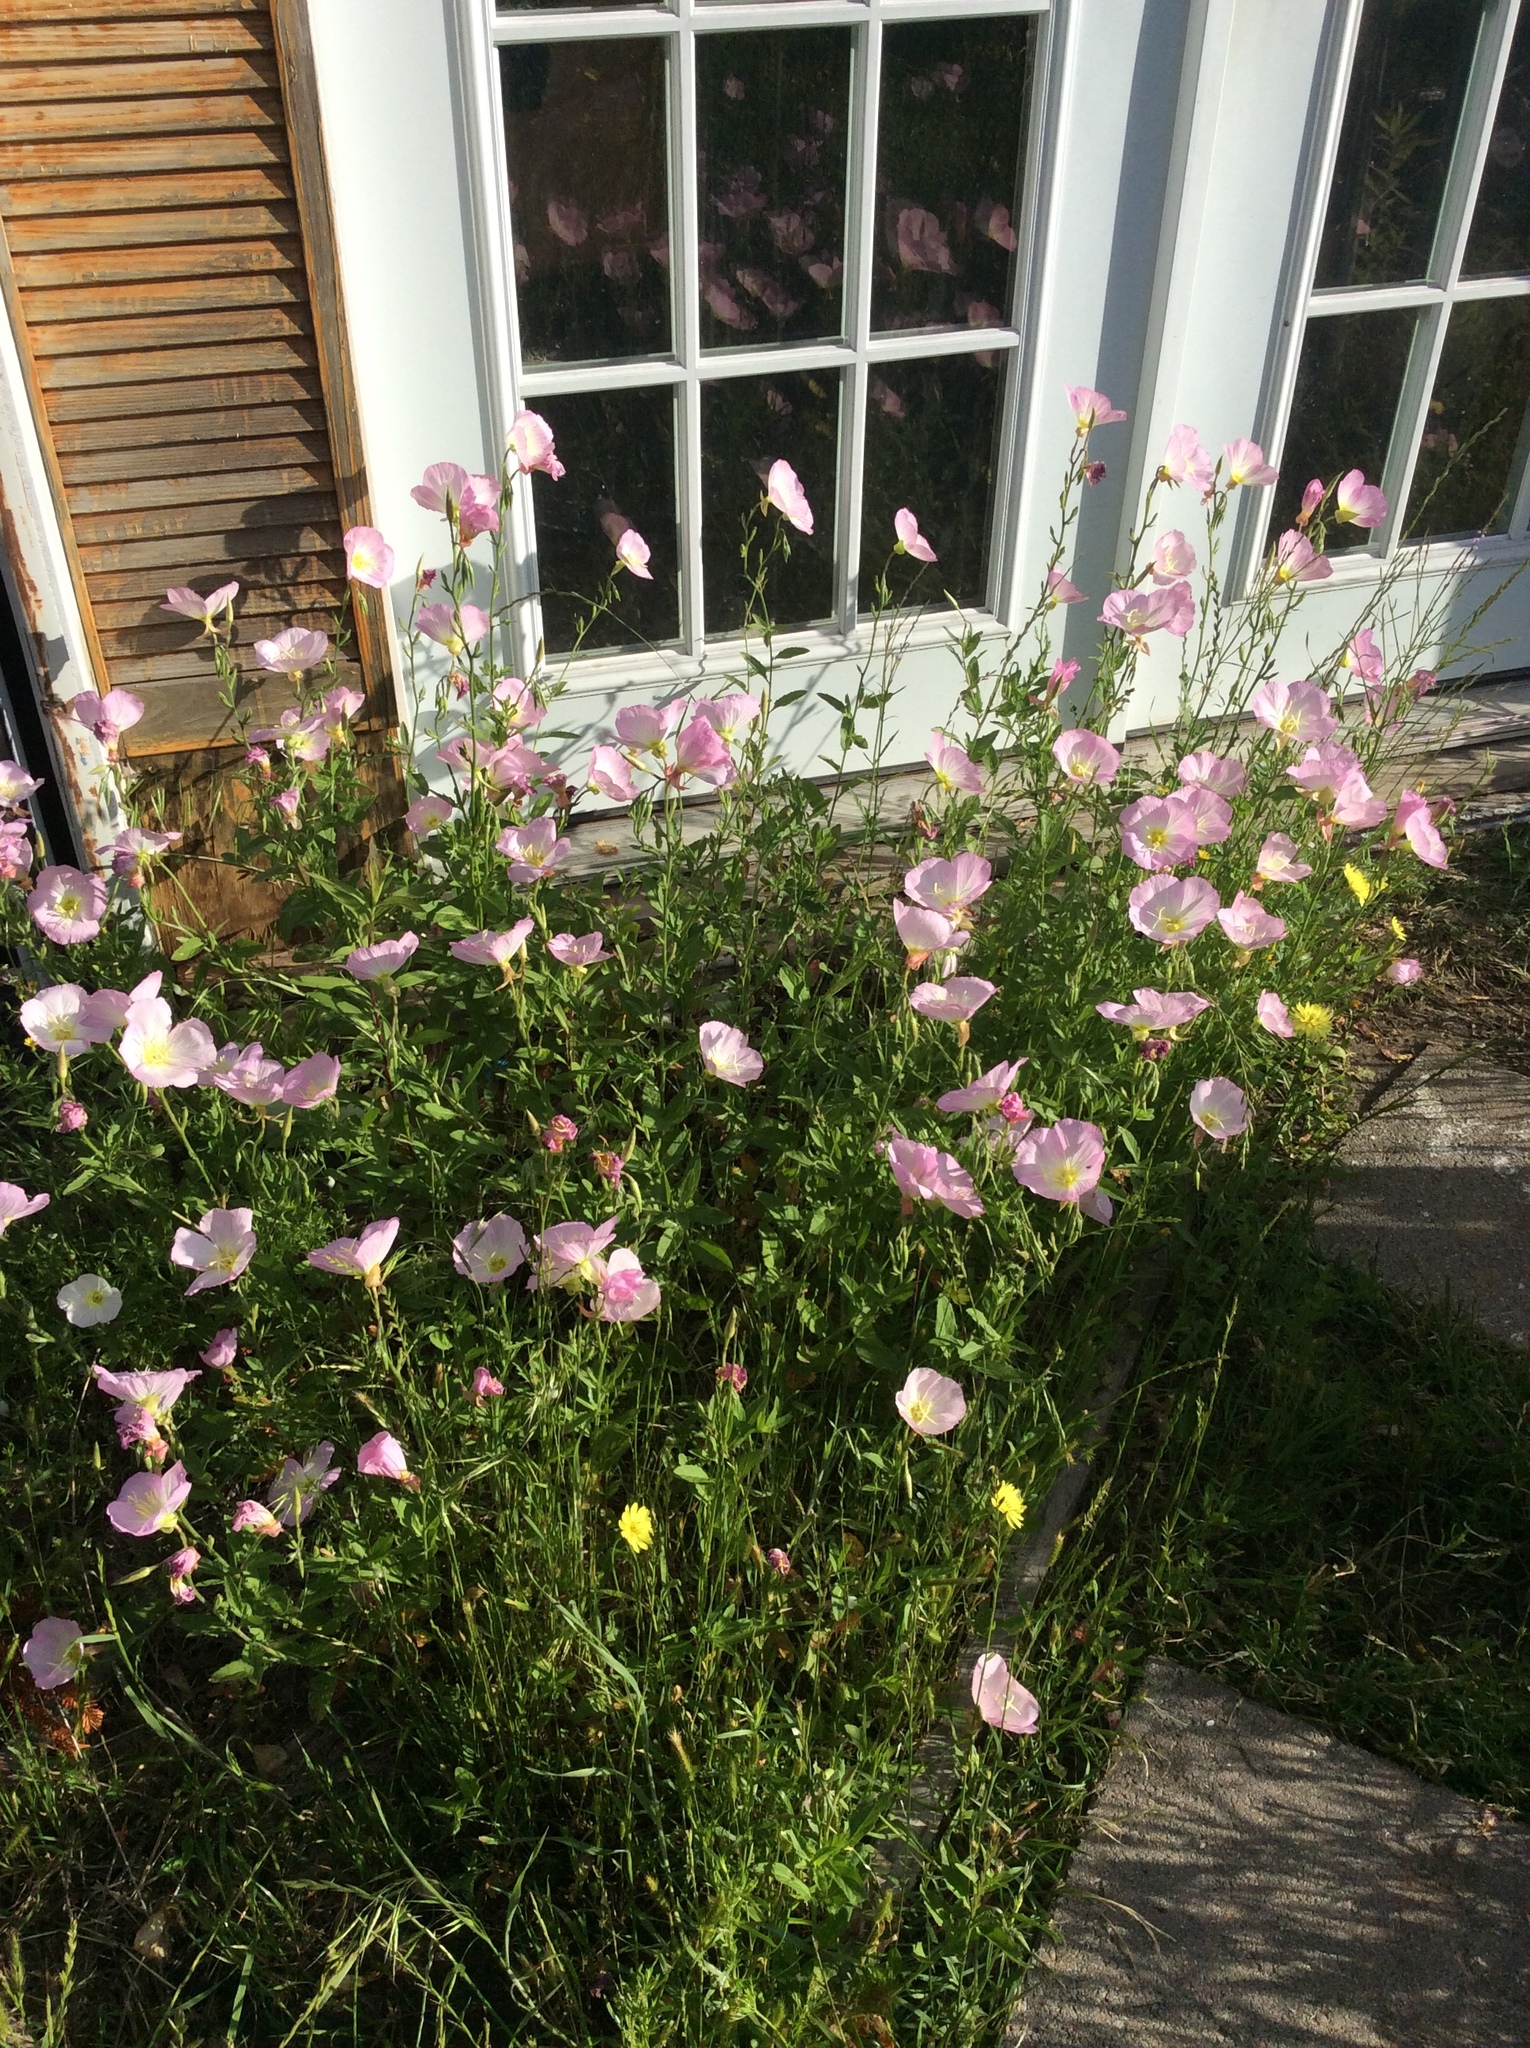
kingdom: Plantae
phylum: Tracheophyta
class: Magnoliopsida
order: Myrtales
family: Onagraceae
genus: Oenothera
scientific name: Oenothera speciosa
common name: White evening-primrose
